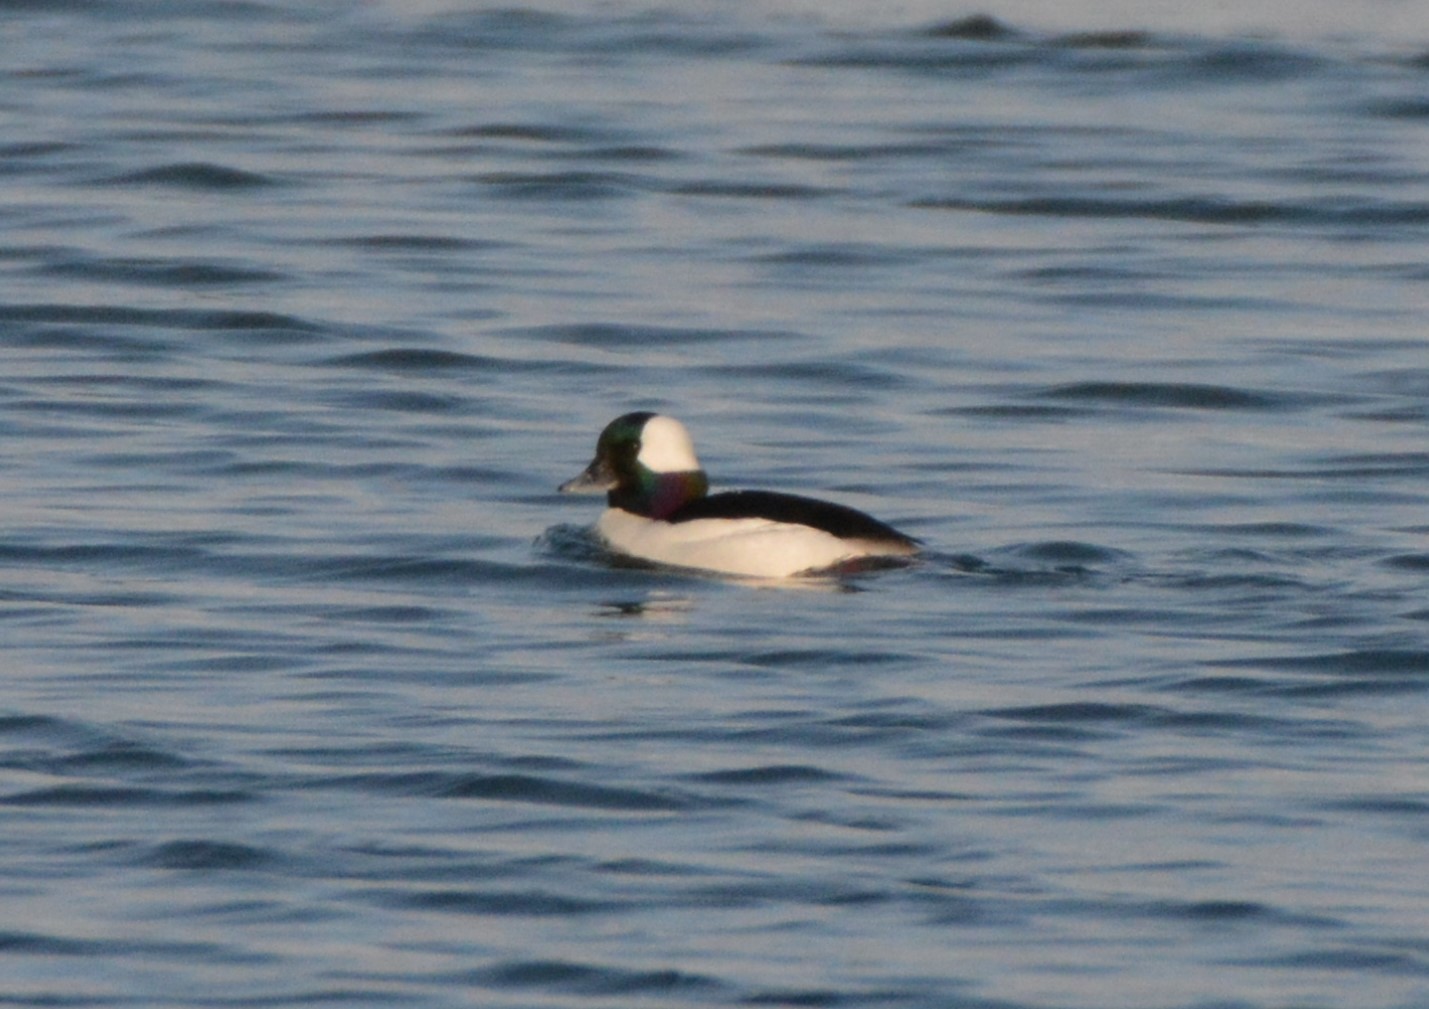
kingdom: Animalia
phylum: Chordata
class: Aves
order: Anseriformes
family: Anatidae
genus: Bucephala
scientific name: Bucephala albeola
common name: Bufflehead
